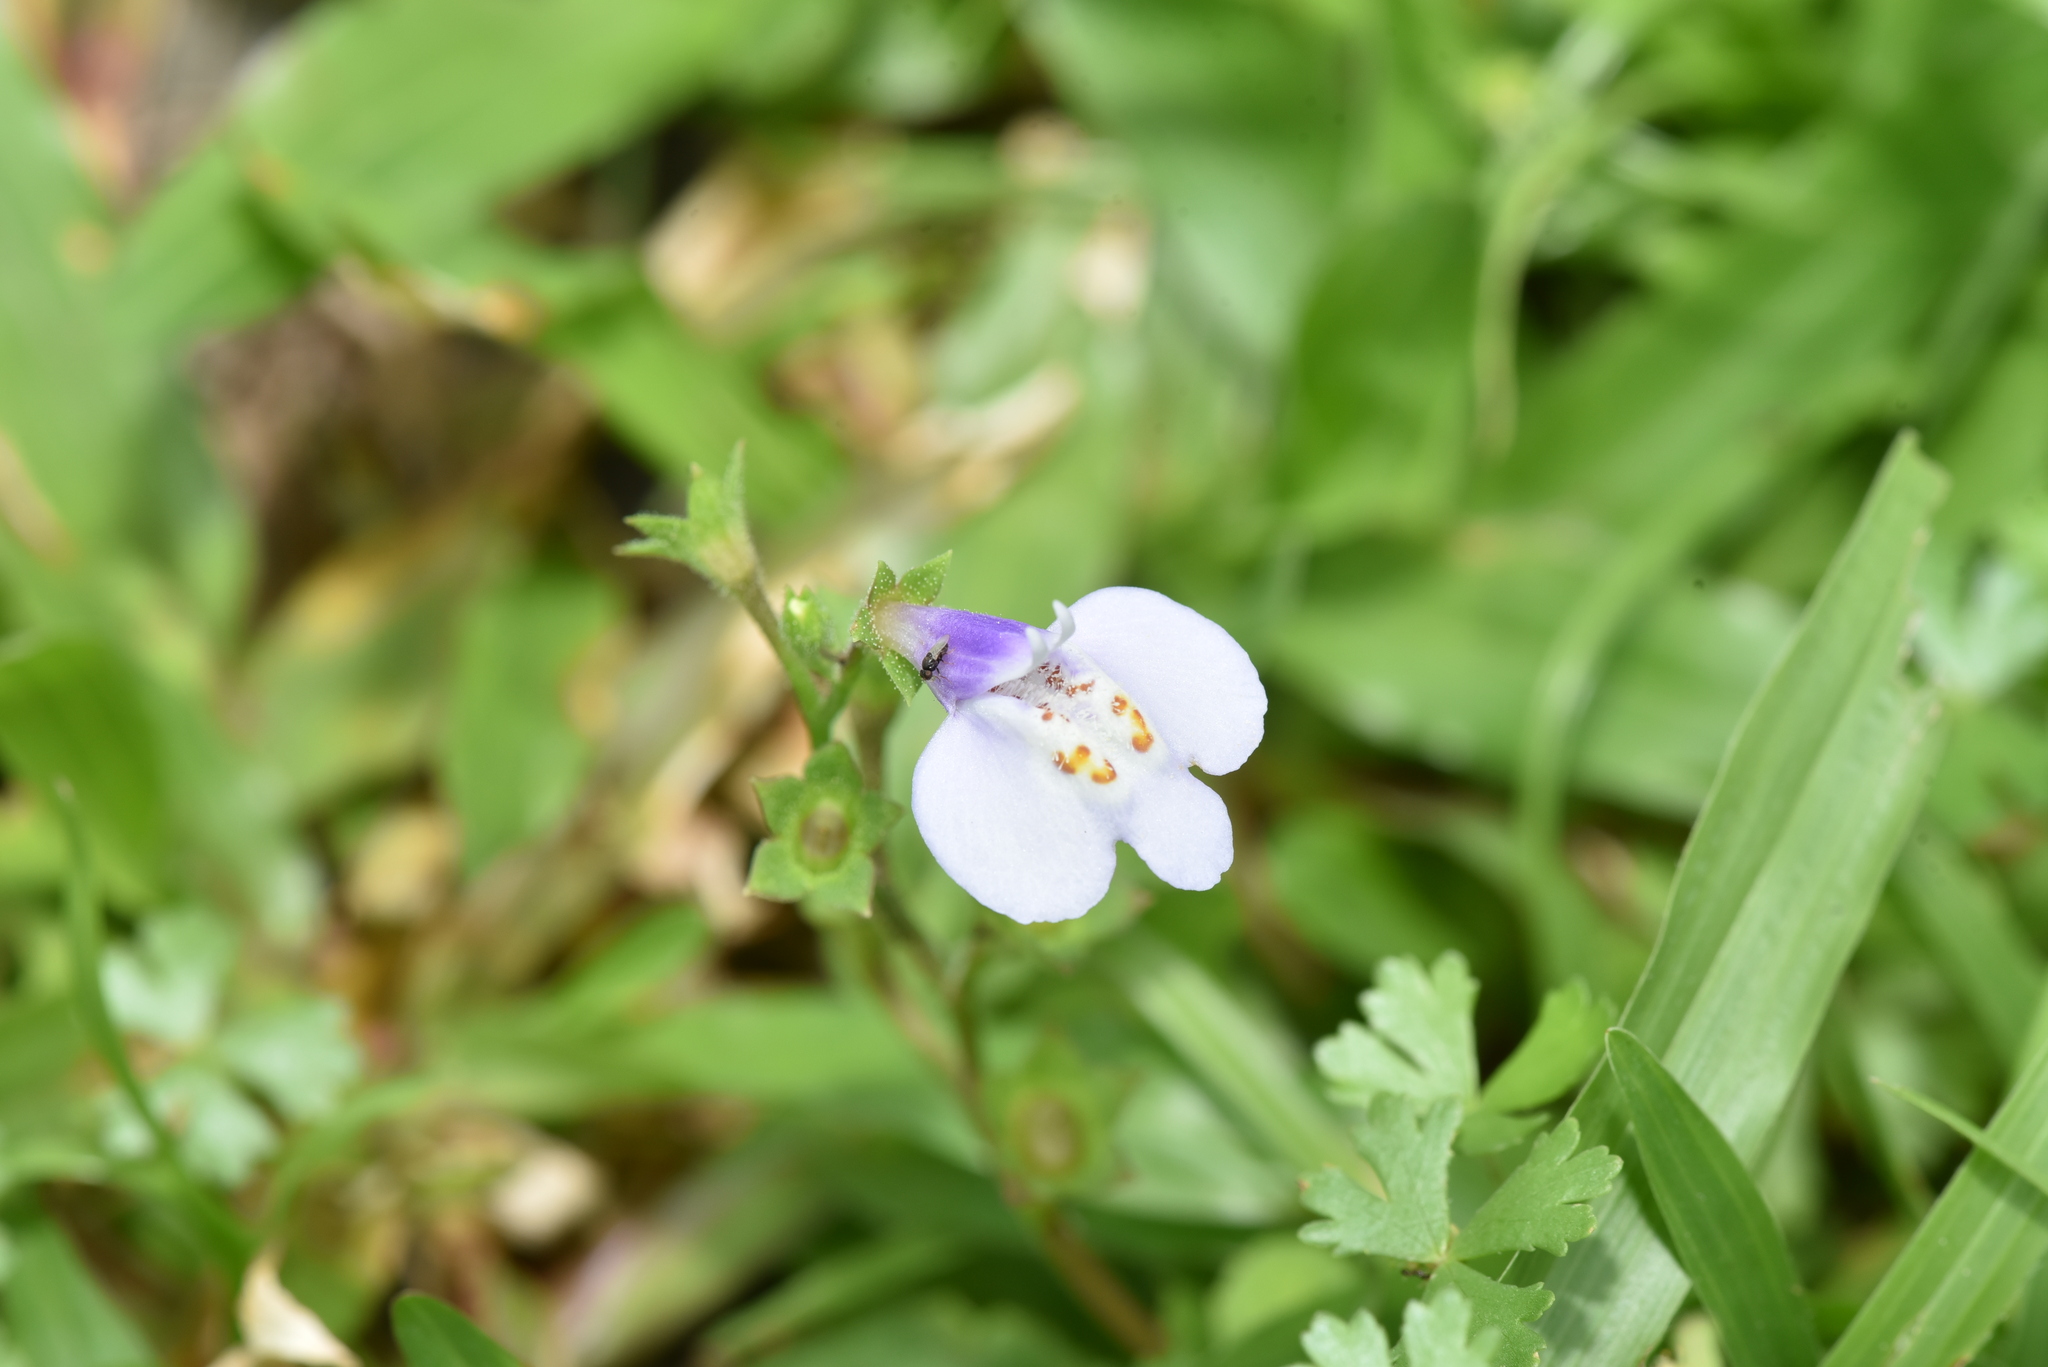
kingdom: Plantae
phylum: Tracheophyta
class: Magnoliopsida
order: Lamiales
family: Mazaceae
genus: Mazus
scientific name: Mazus fauriei
